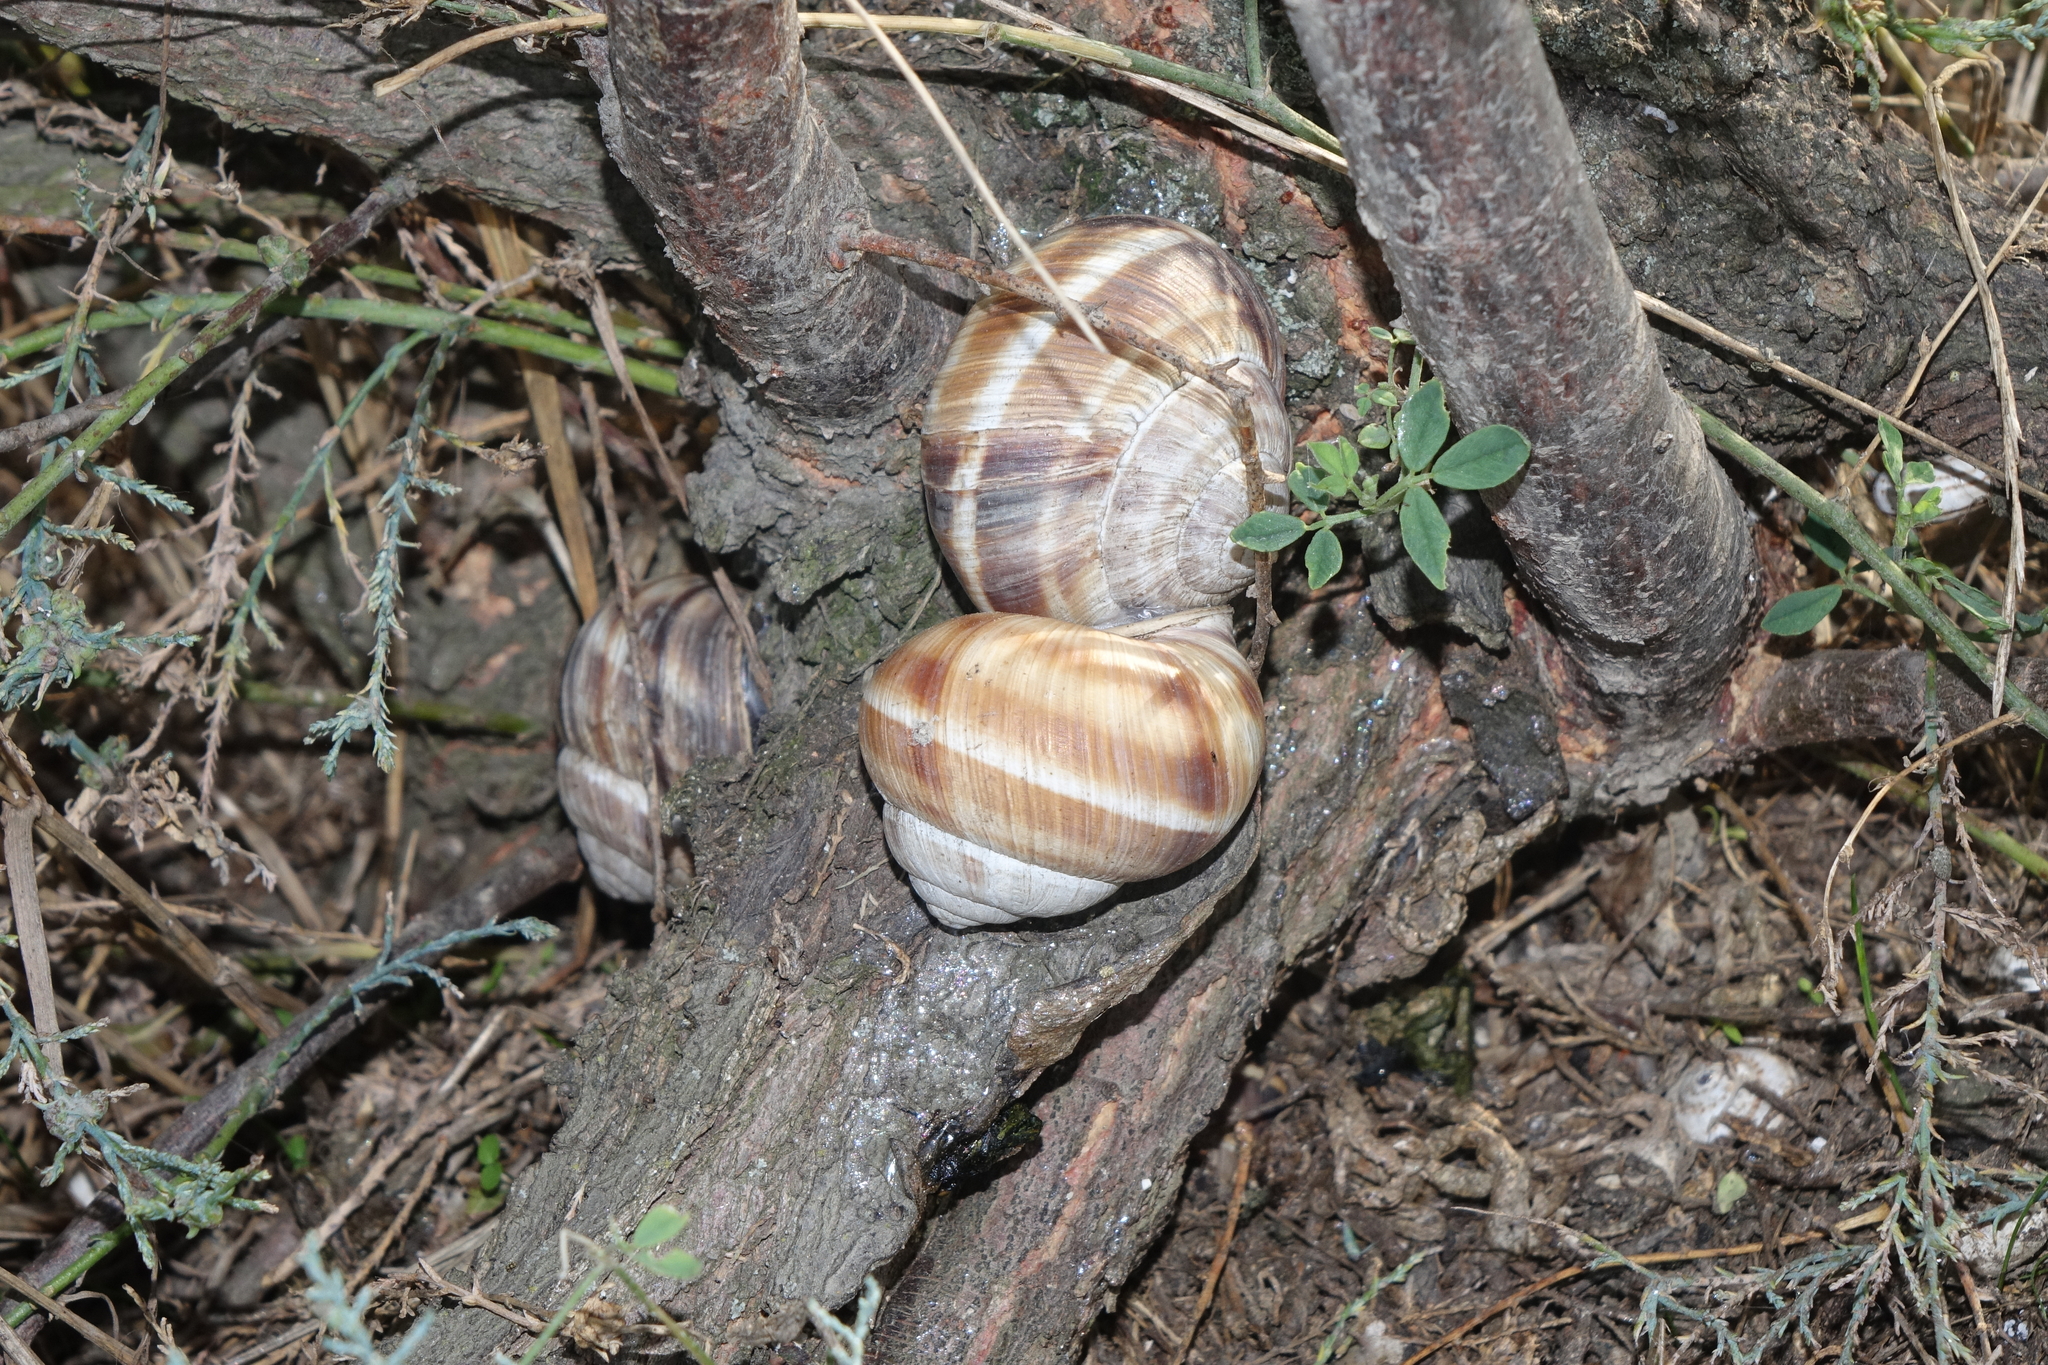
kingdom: Animalia
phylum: Mollusca
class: Gastropoda
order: Stylommatophora
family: Helicidae
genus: Helix
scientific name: Helix lucorum
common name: Turkish snail
